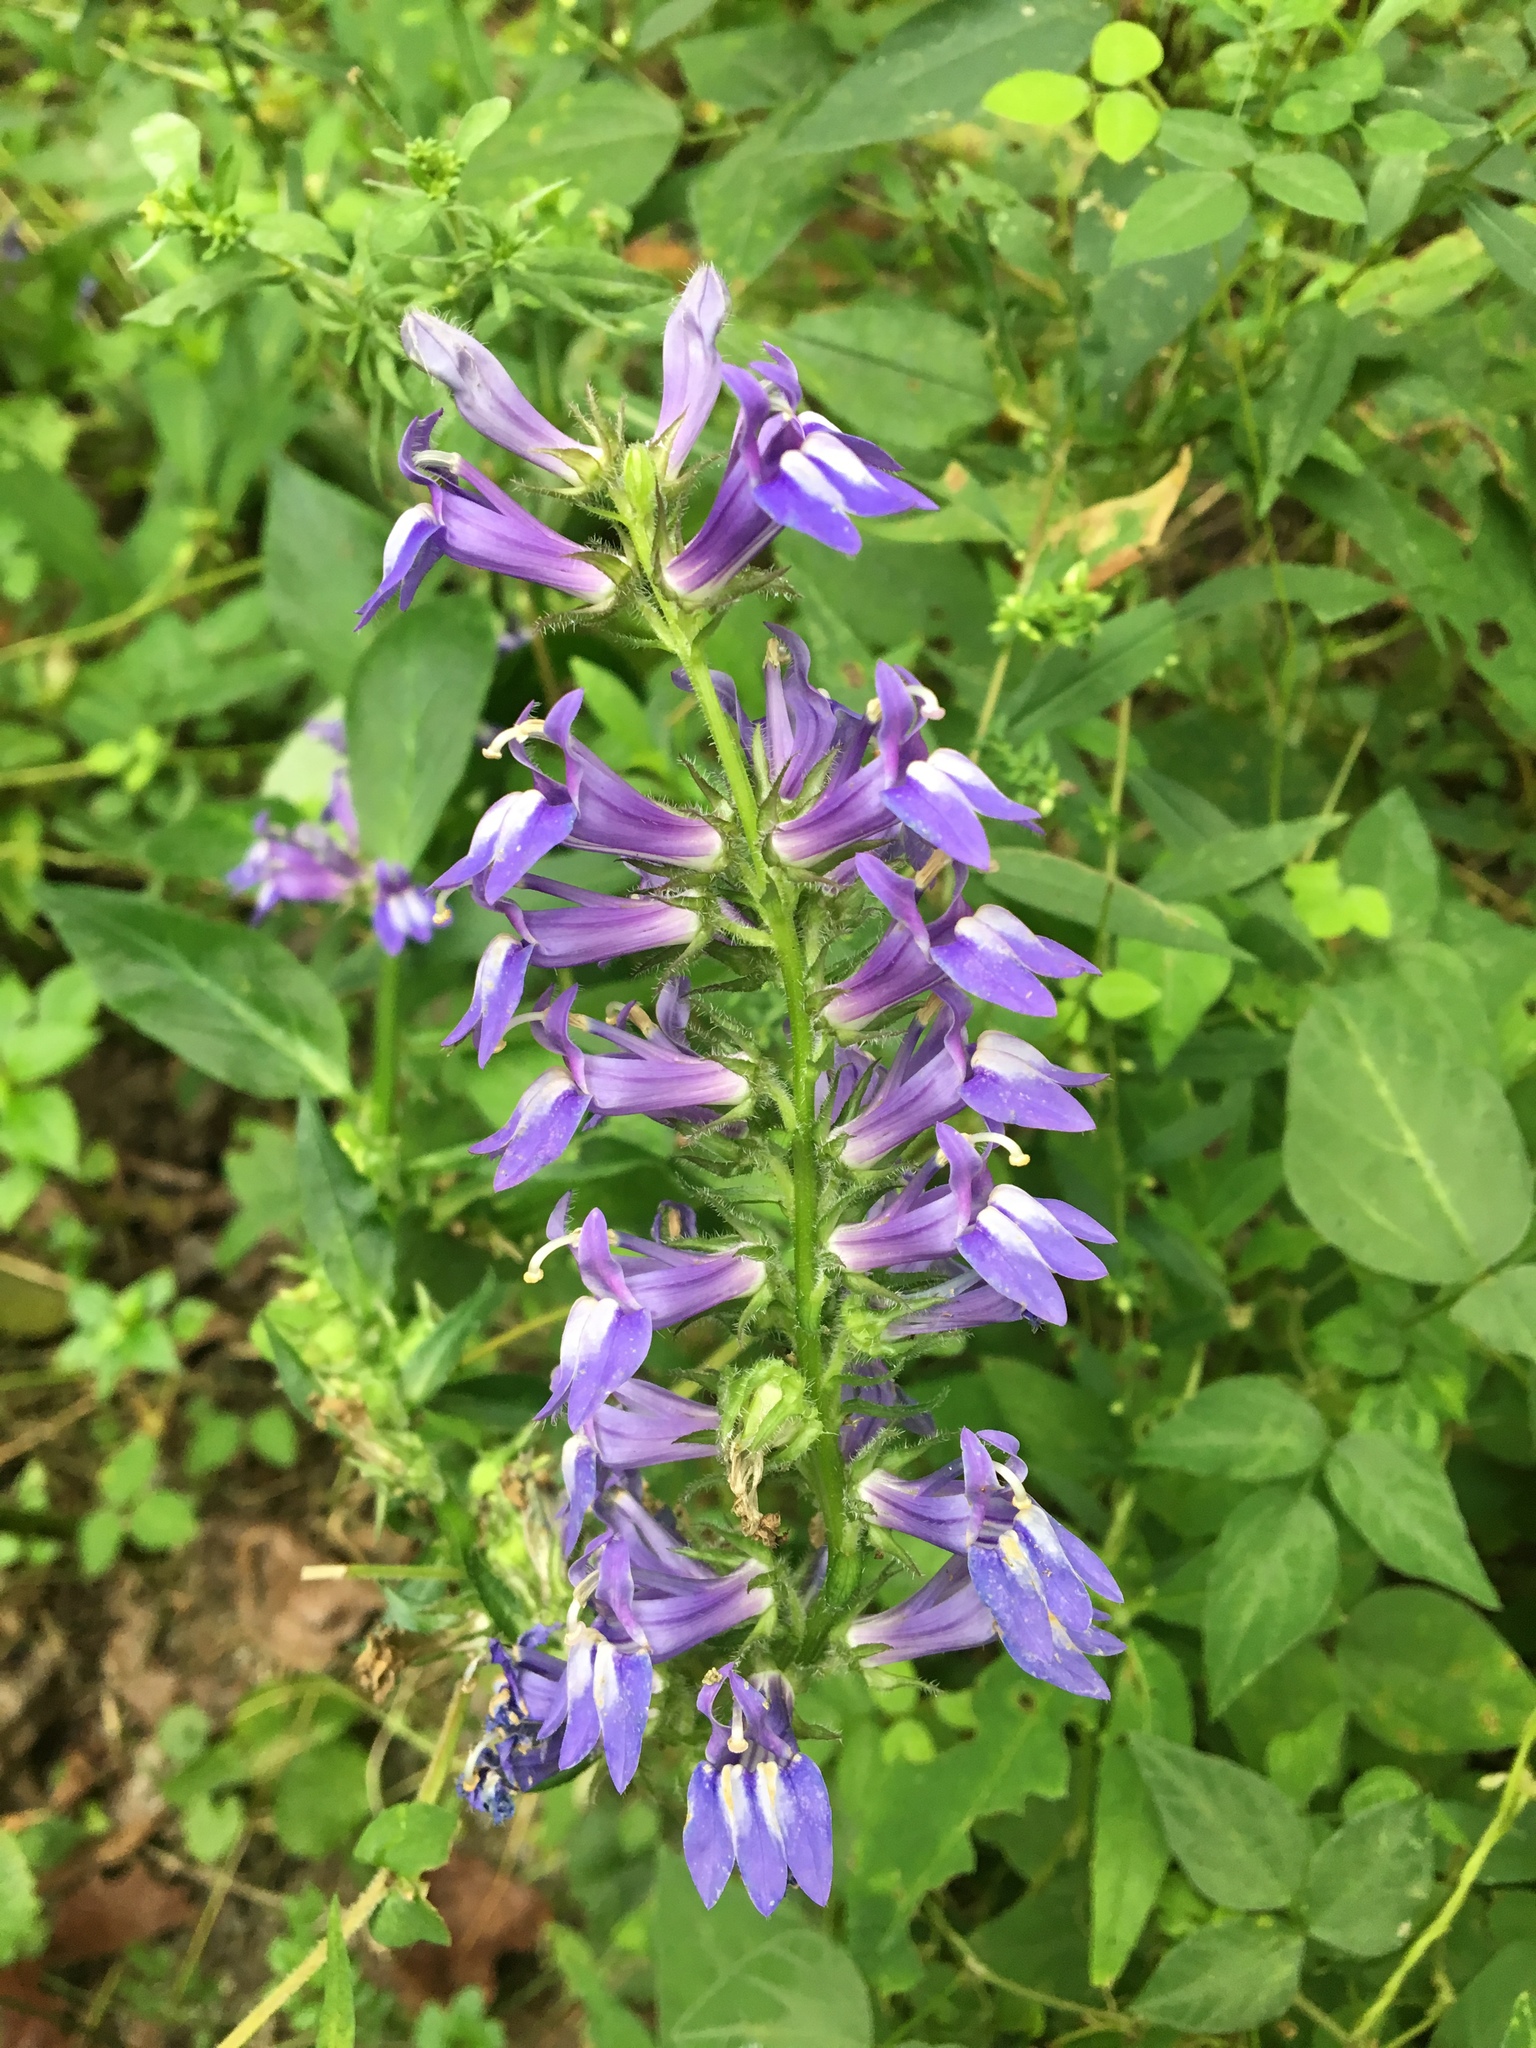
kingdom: Plantae
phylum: Tracheophyta
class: Magnoliopsida
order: Asterales
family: Campanulaceae
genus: Lobelia
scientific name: Lobelia siphilitica
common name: Great lobelia
